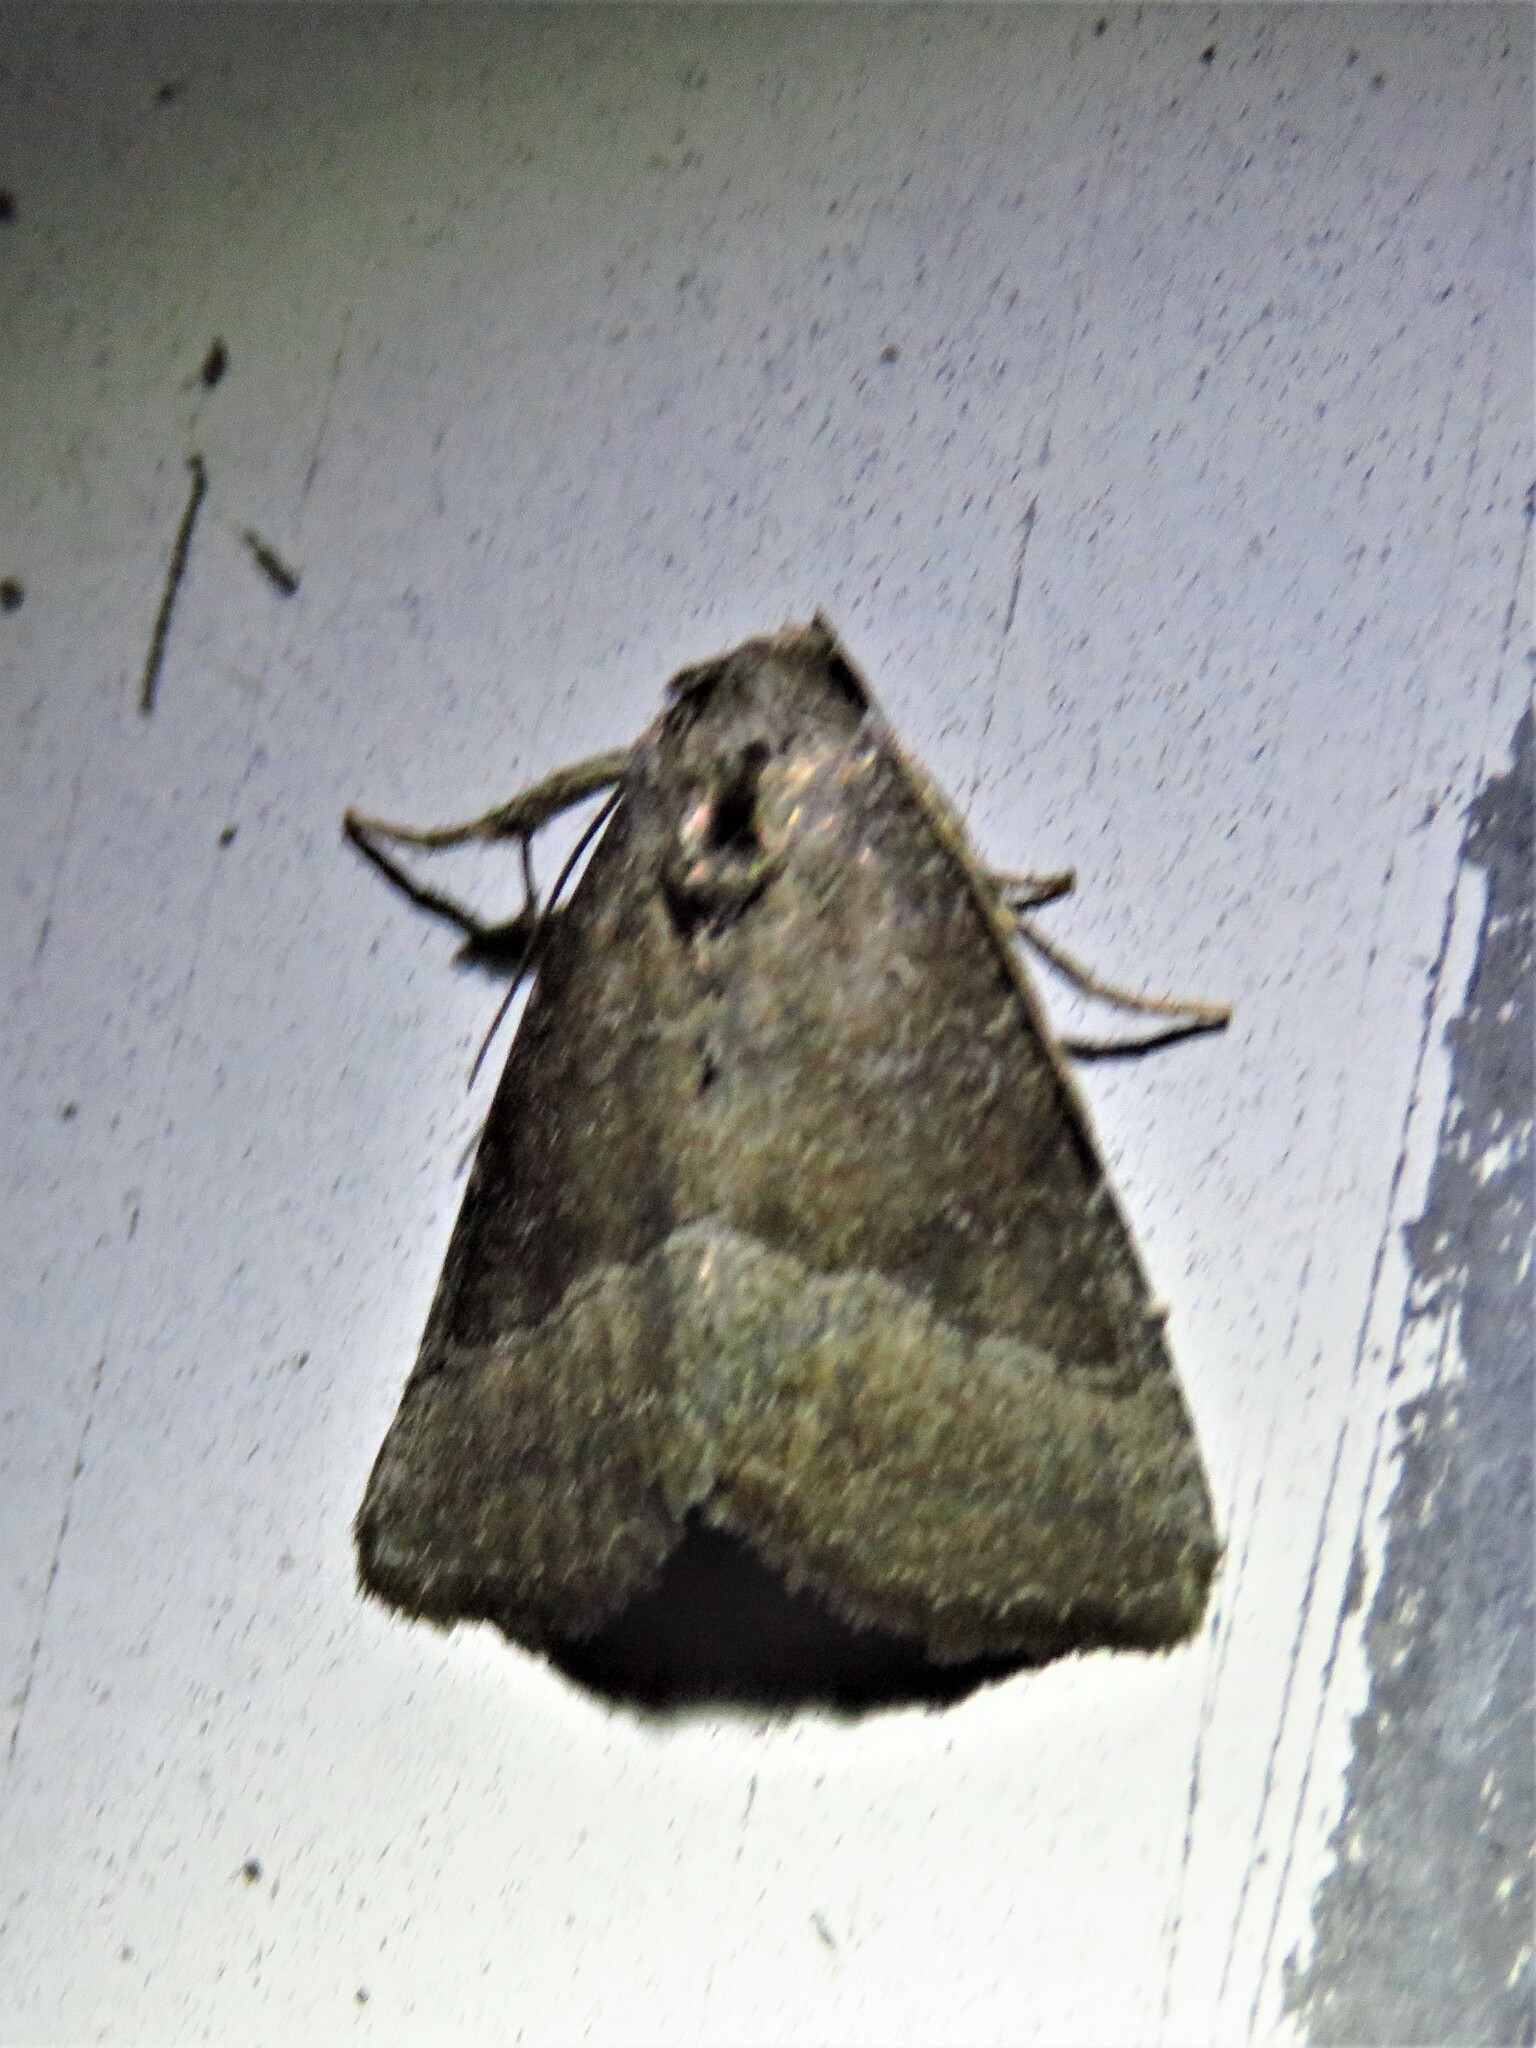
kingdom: Animalia
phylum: Arthropoda
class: Insecta
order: Lepidoptera
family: Noctuidae
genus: Ogdoconta
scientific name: Ogdoconta cinereola
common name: Common pinkband
